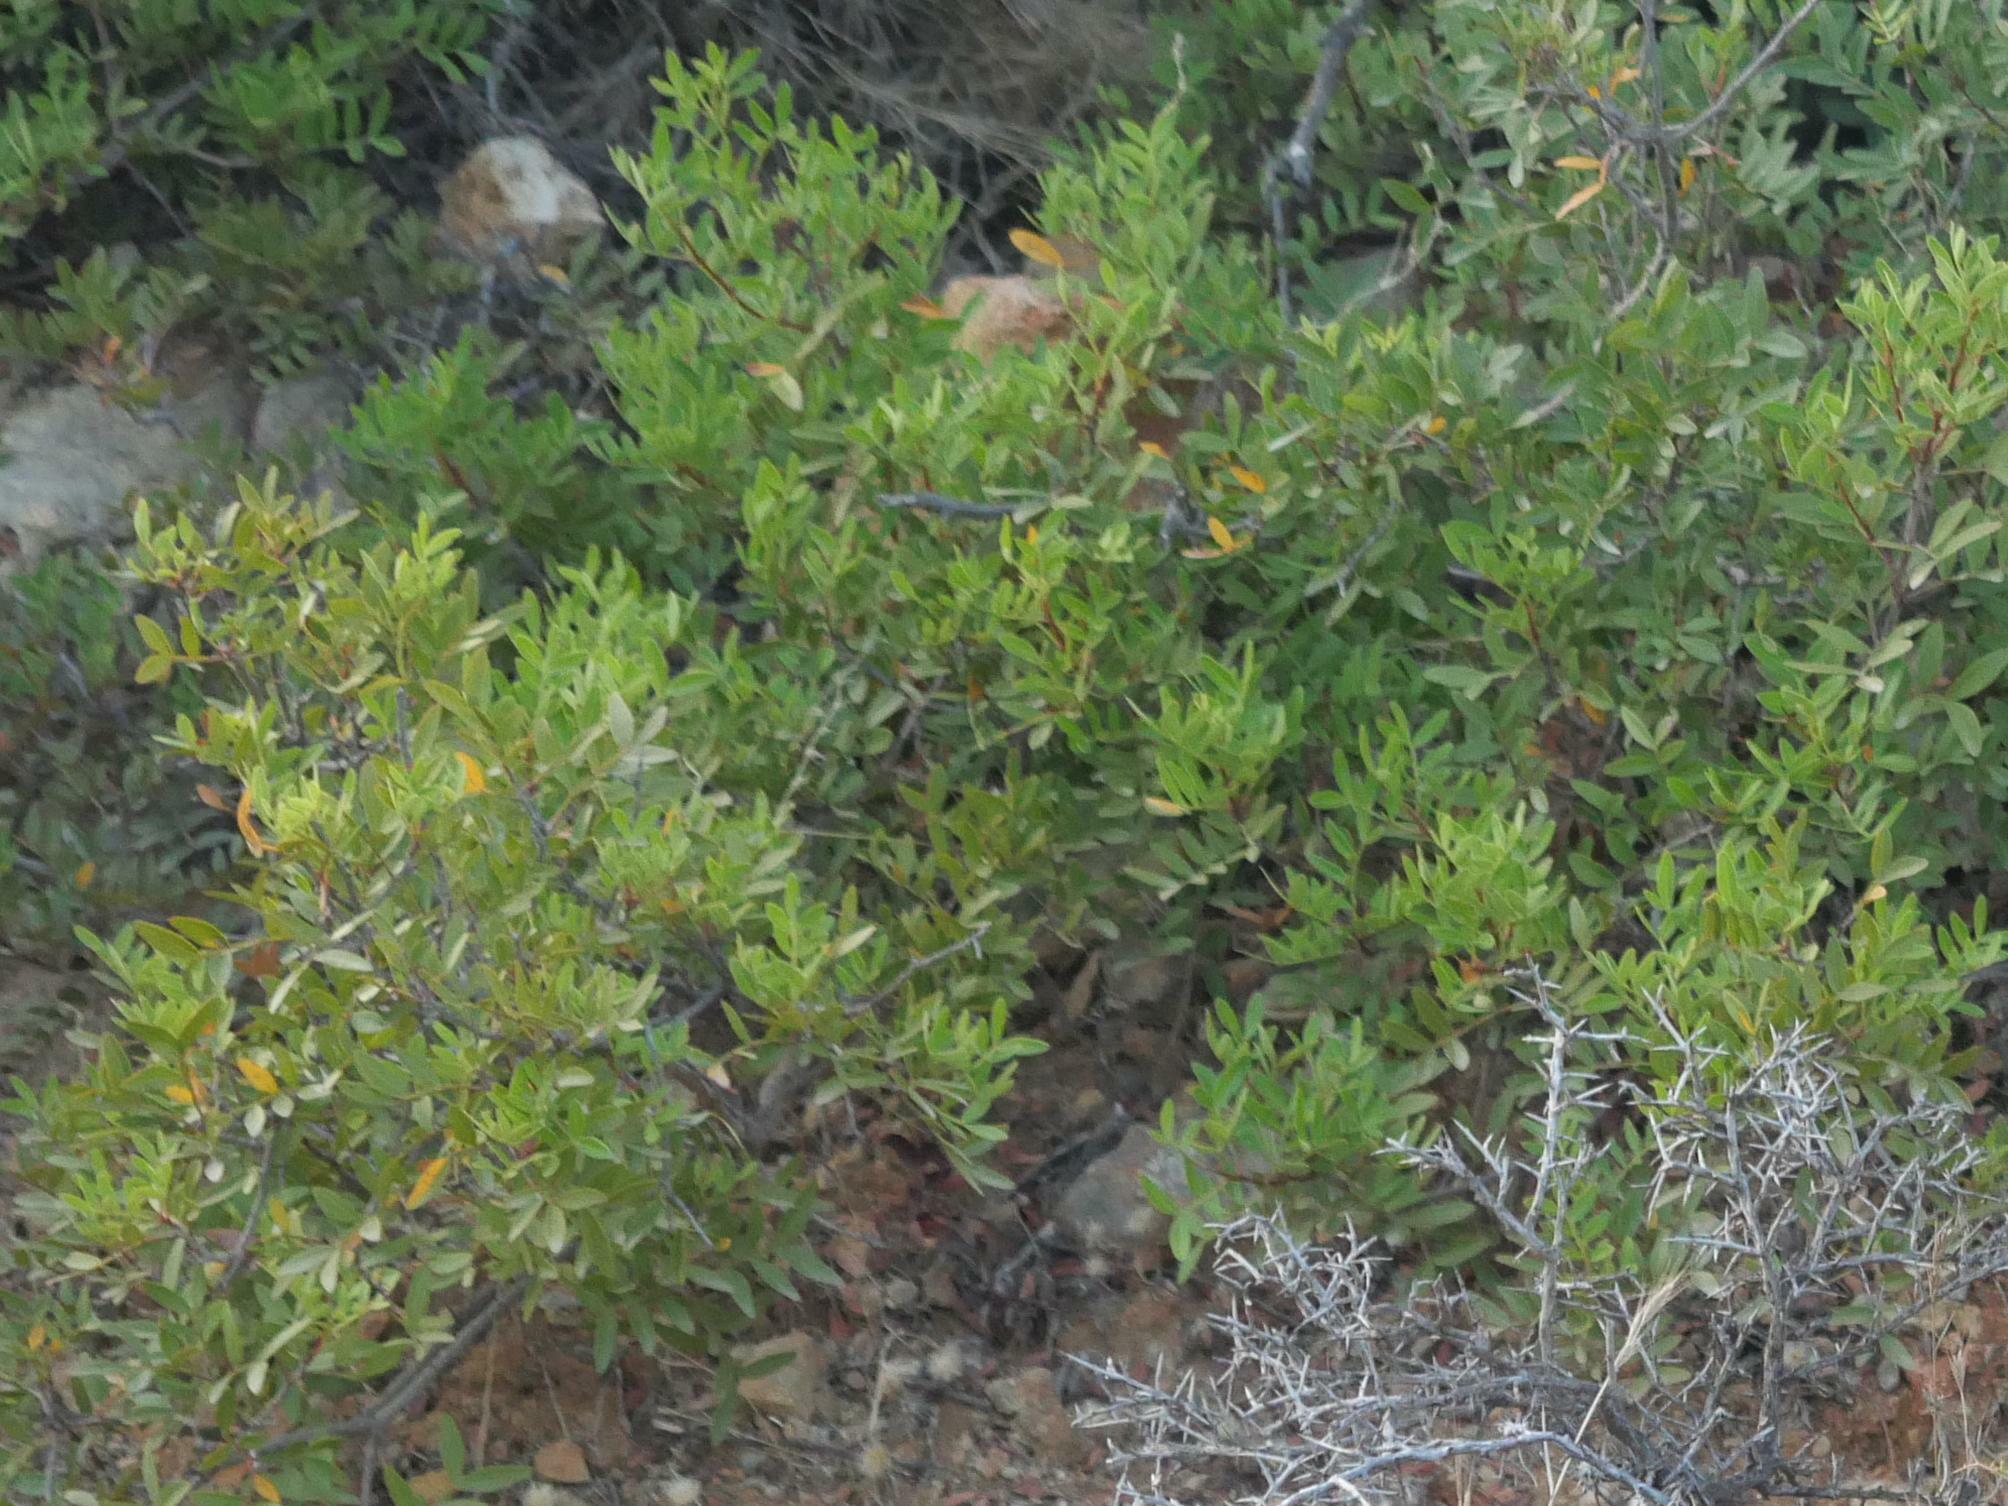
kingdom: Plantae
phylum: Tracheophyta
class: Magnoliopsida
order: Sapindales
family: Anacardiaceae
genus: Pistacia
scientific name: Pistacia lentiscus
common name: Lentisk
